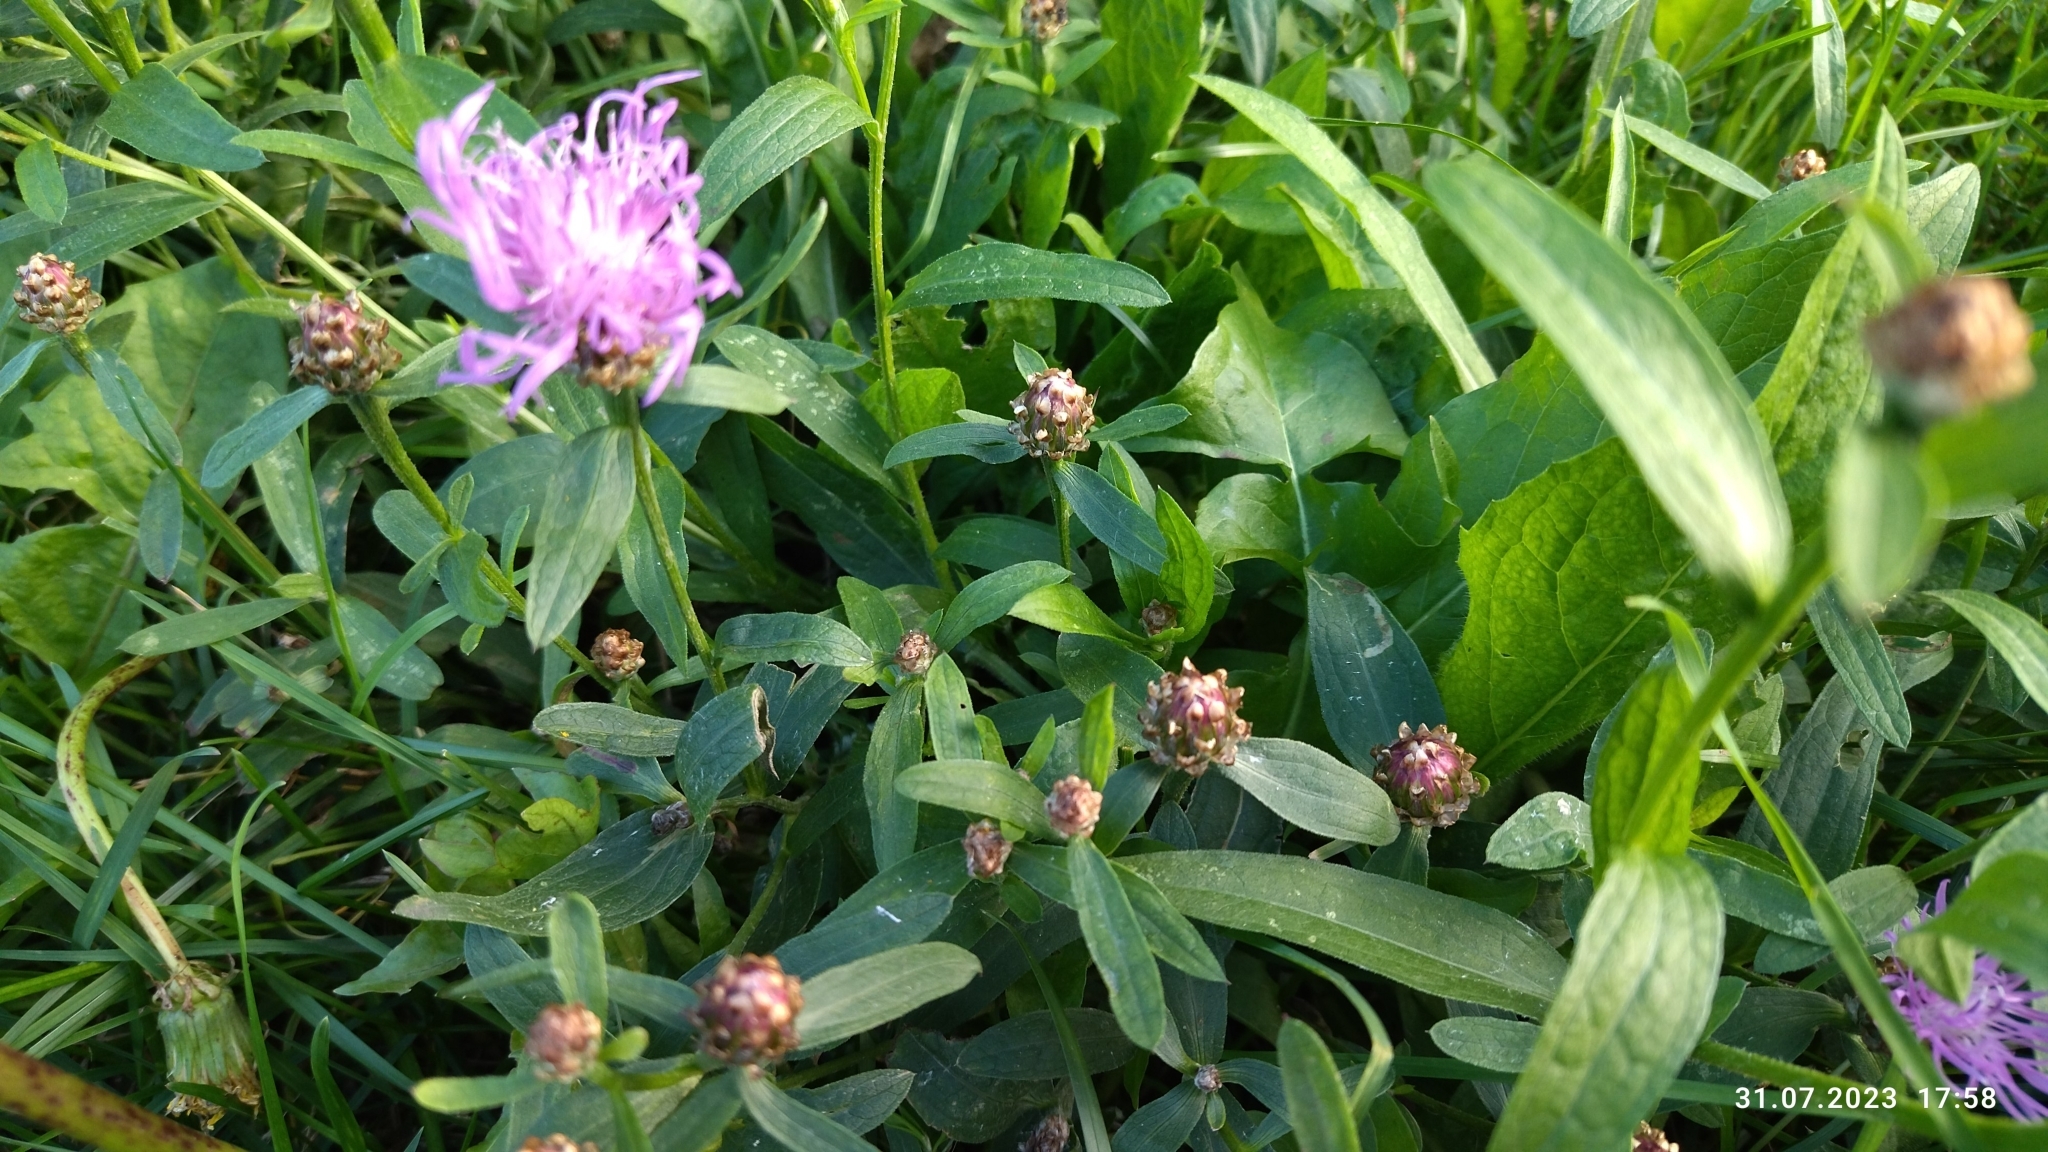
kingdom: Plantae
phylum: Tracheophyta
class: Magnoliopsida
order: Asterales
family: Asteraceae
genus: Centaurea
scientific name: Centaurea jacea
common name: Brown knapweed
